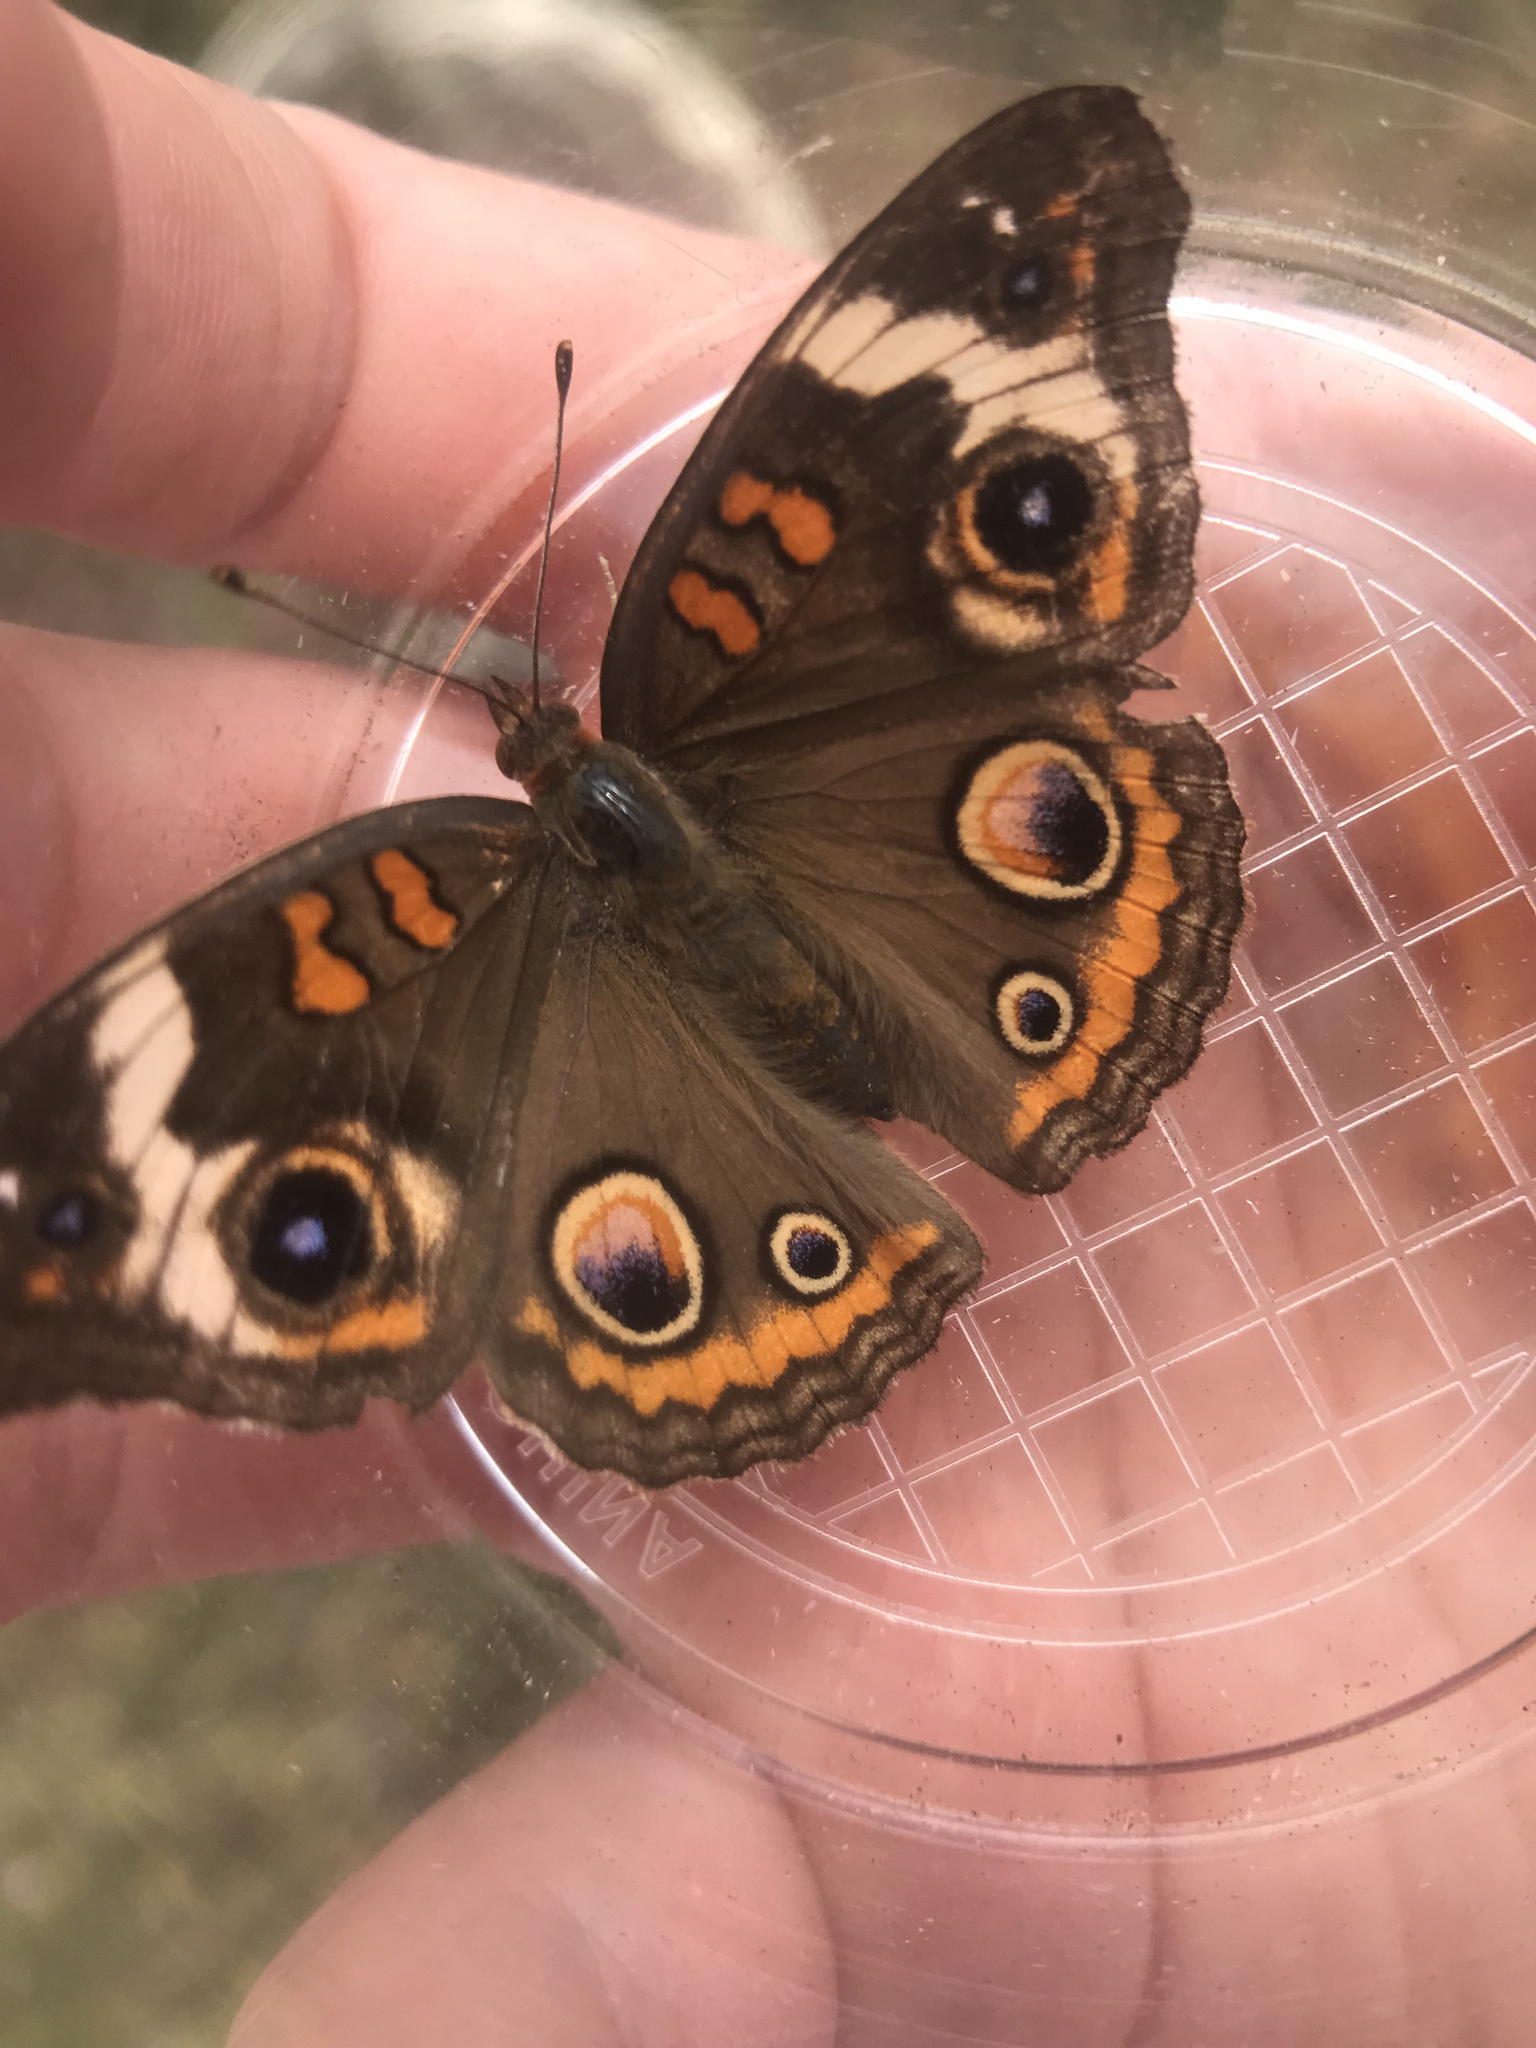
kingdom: Animalia
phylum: Arthropoda
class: Insecta
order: Lepidoptera
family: Nymphalidae
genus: Junonia
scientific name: Junonia coenia
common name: Common buckeye
